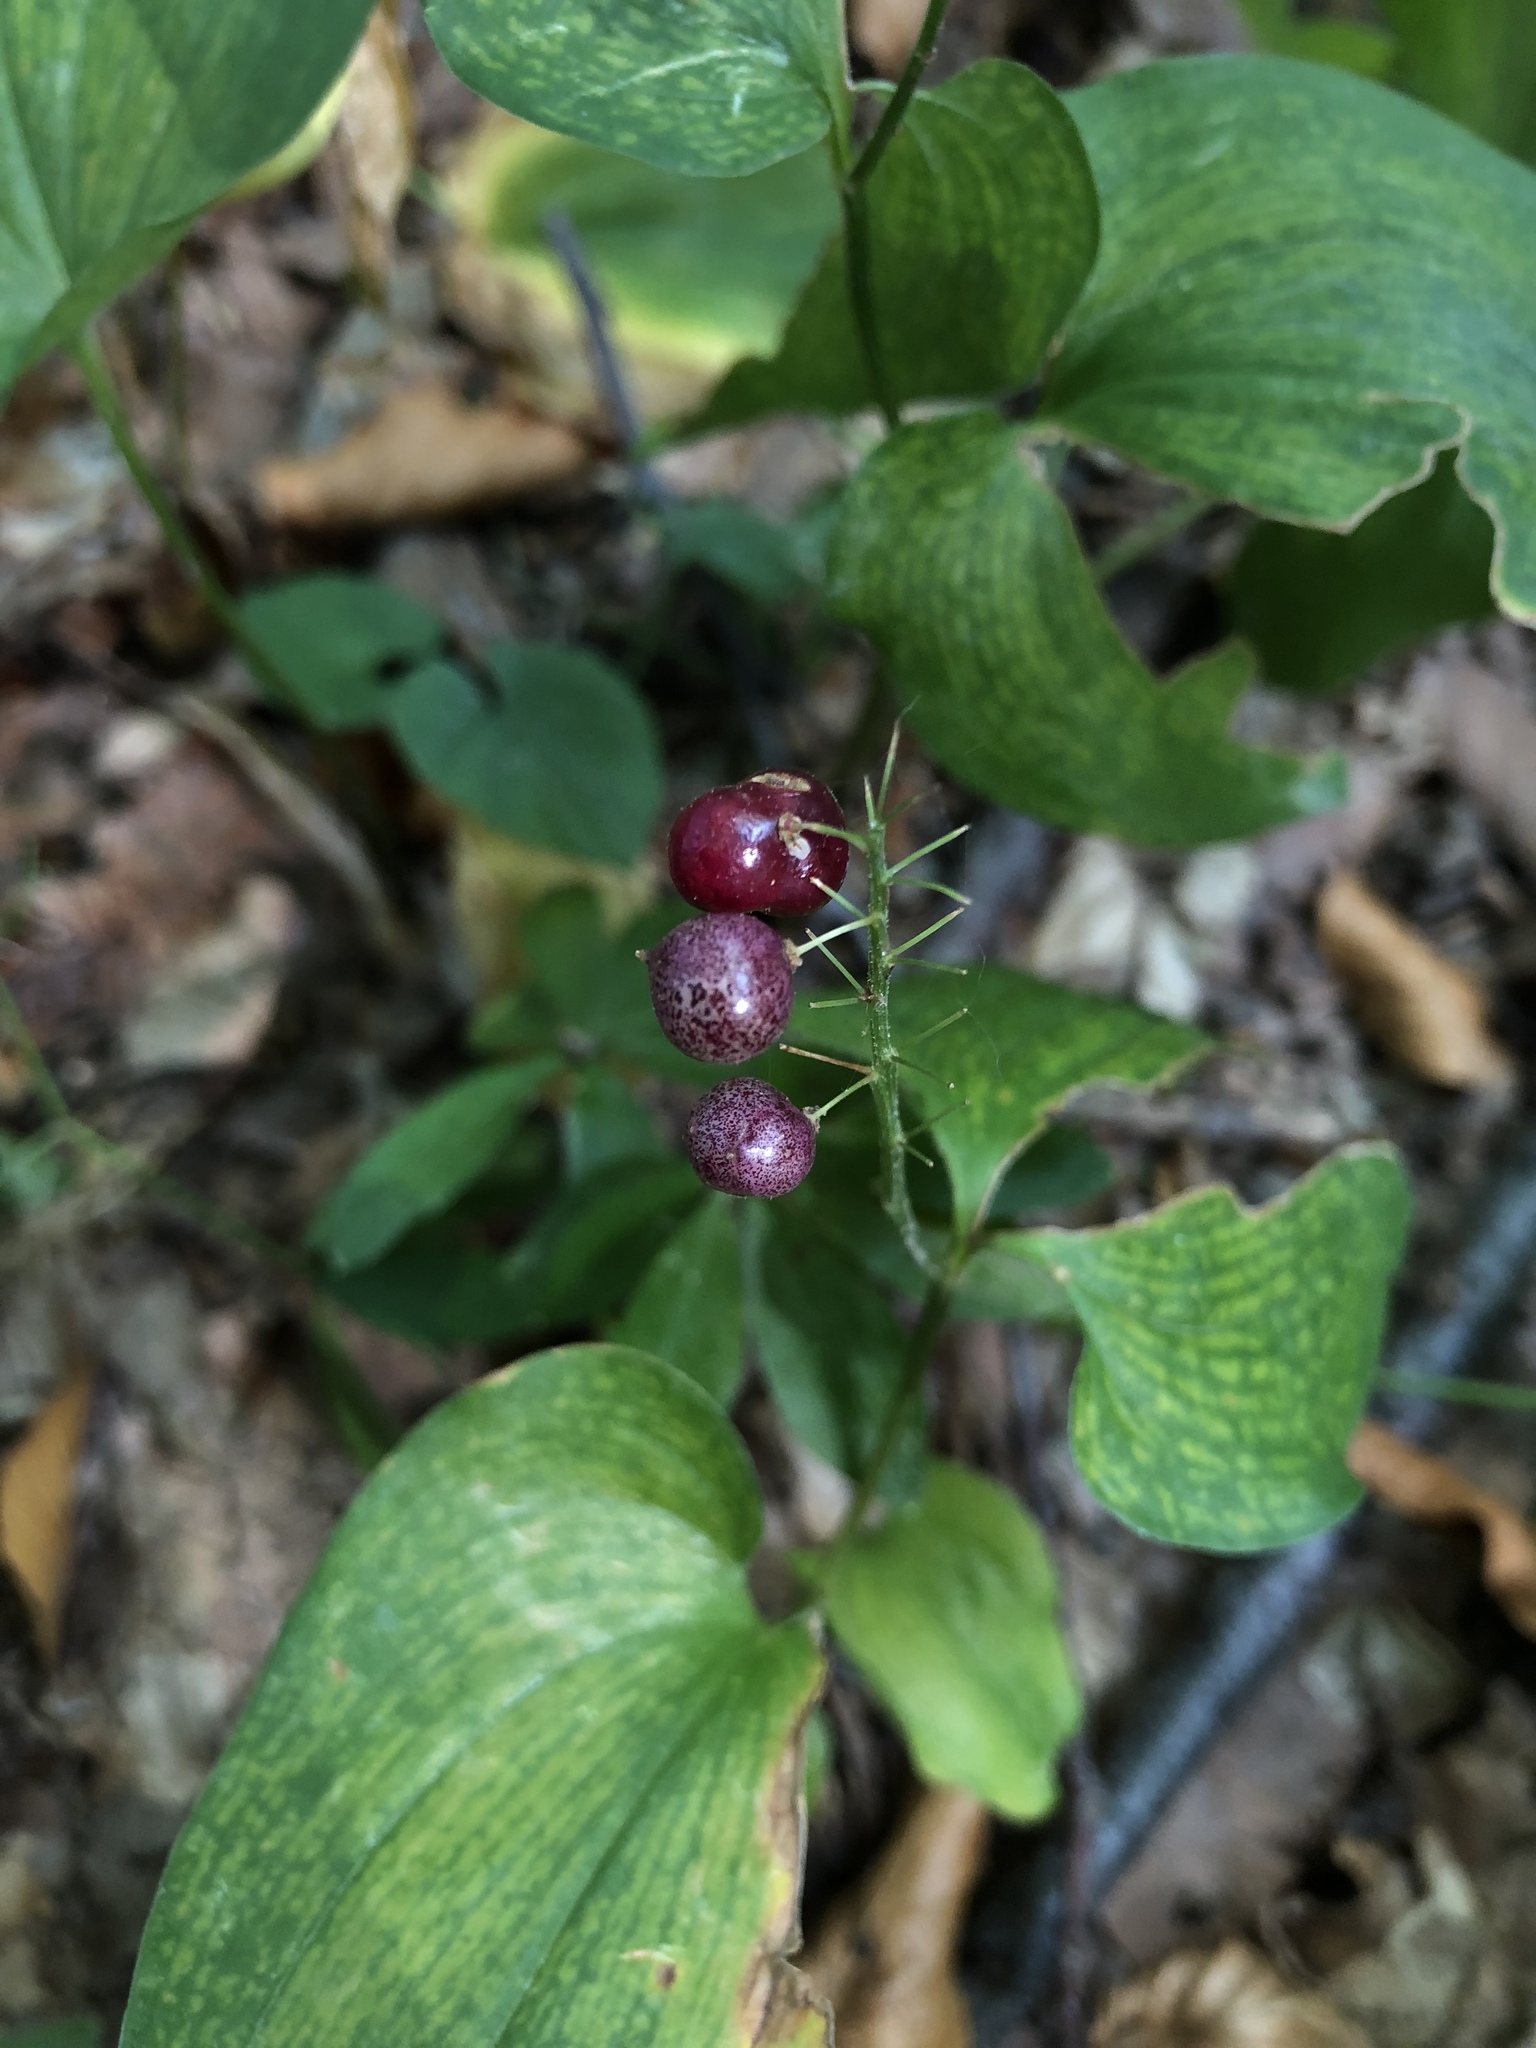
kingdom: Plantae
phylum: Tracheophyta
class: Liliopsida
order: Asparagales
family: Asparagaceae
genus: Maianthemum
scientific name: Maianthemum bifolium
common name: May lily
